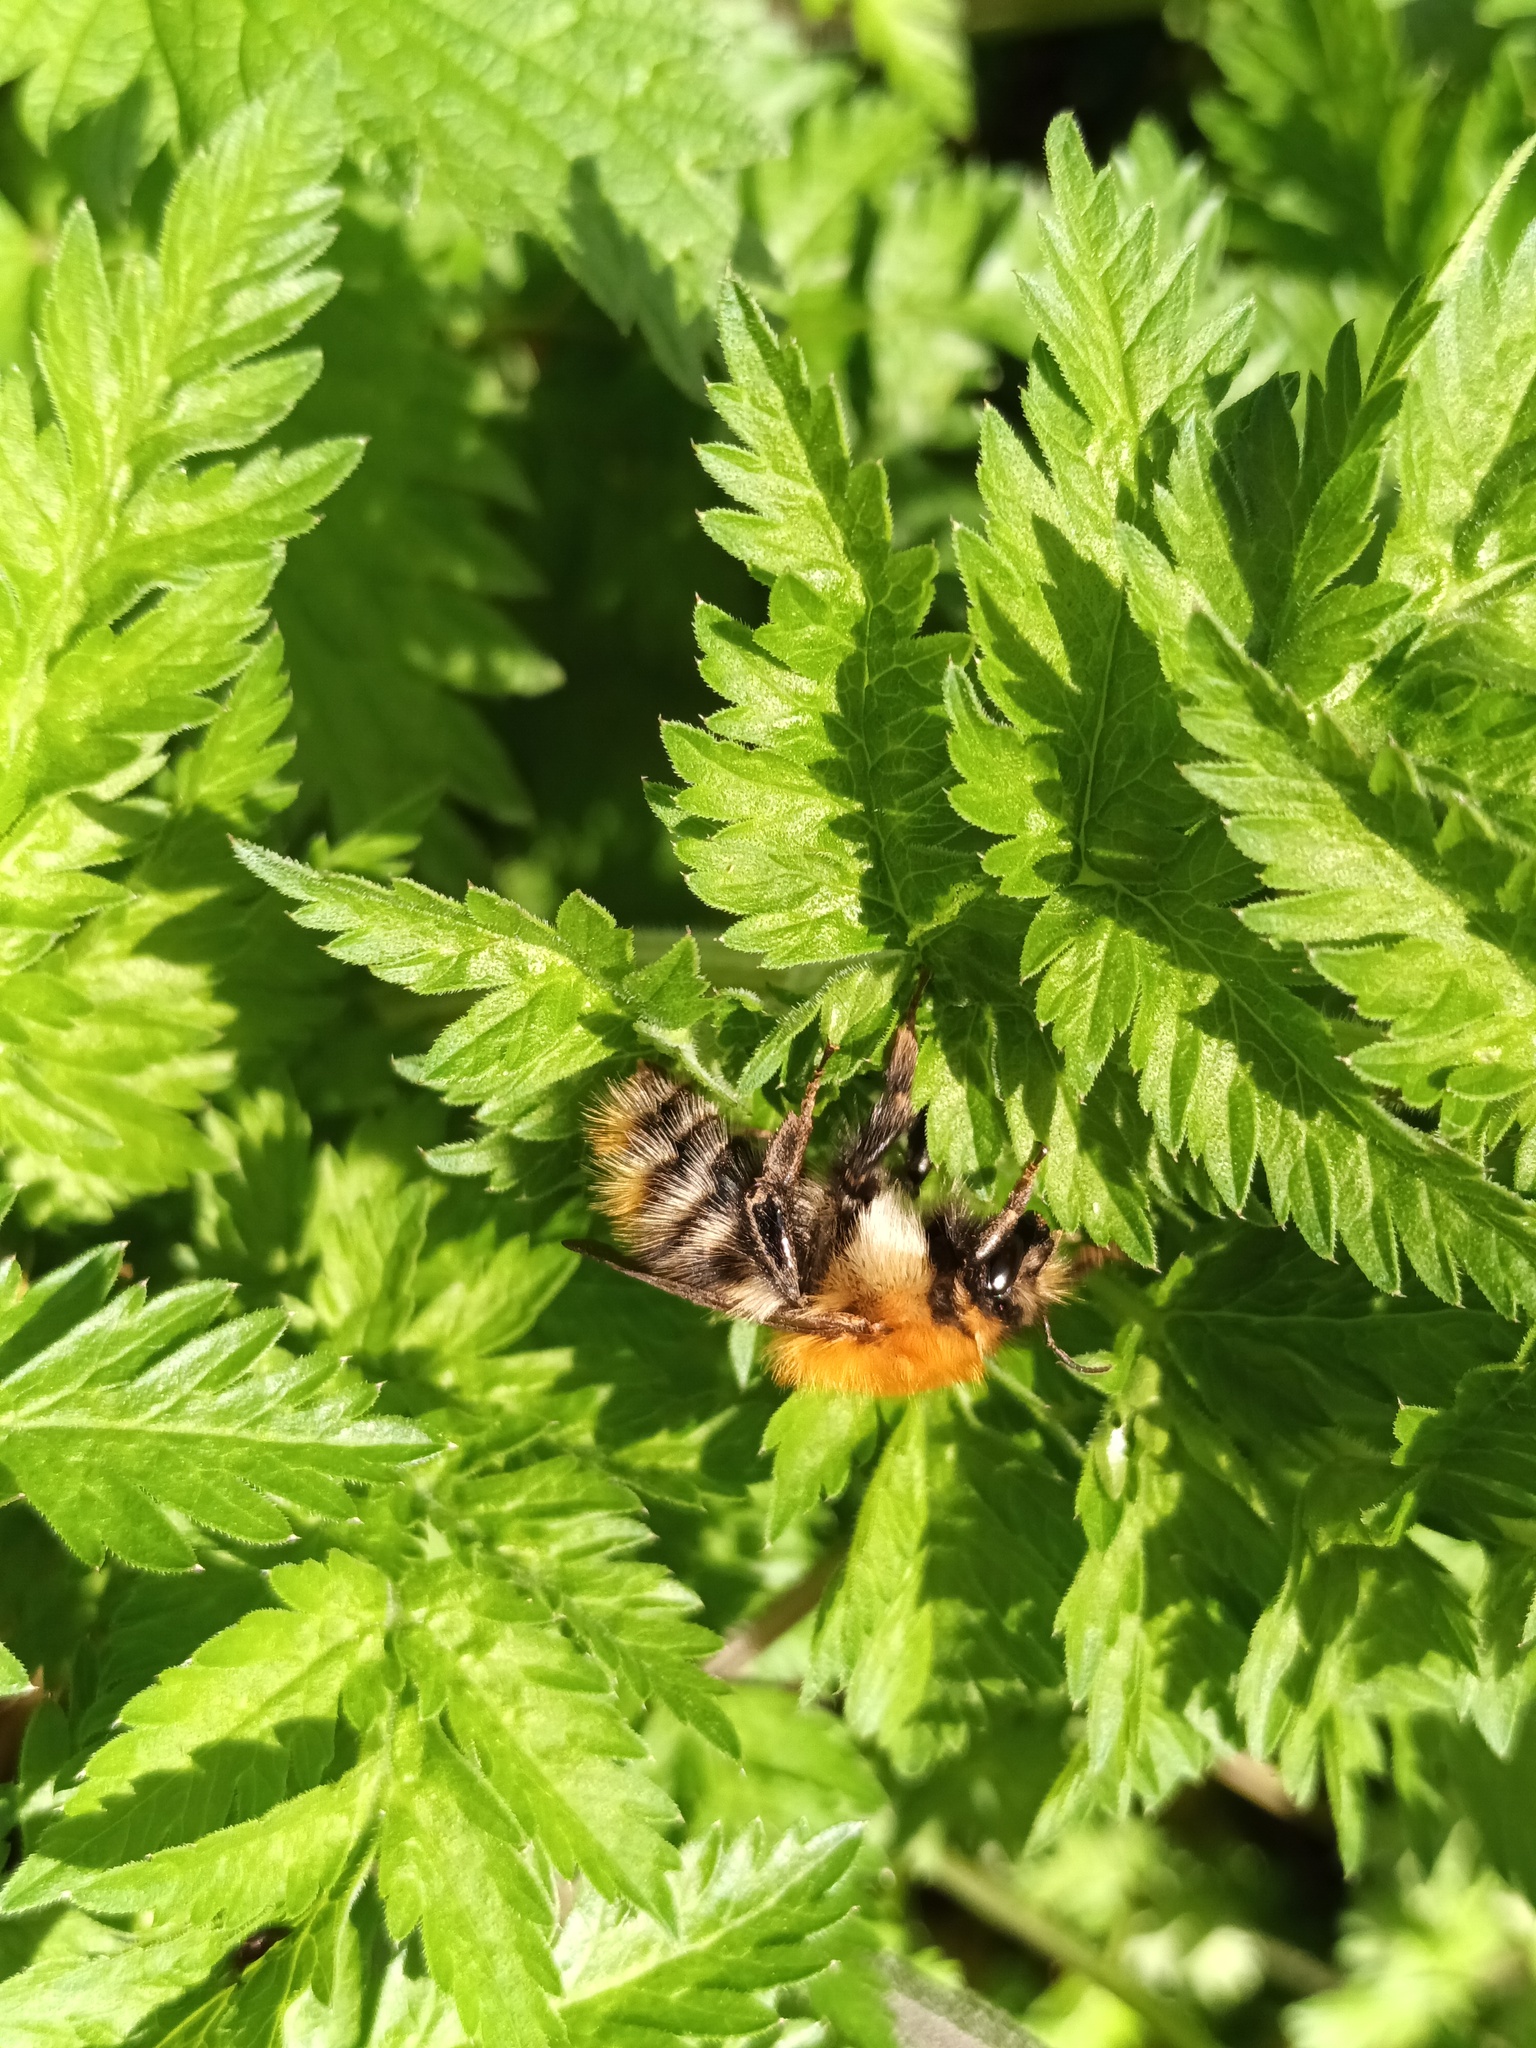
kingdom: Animalia
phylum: Arthropoda
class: Insecta
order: Hymenoptera
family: Apidae
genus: Bombus
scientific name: Bombus pascuorum
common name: Common carder bee
